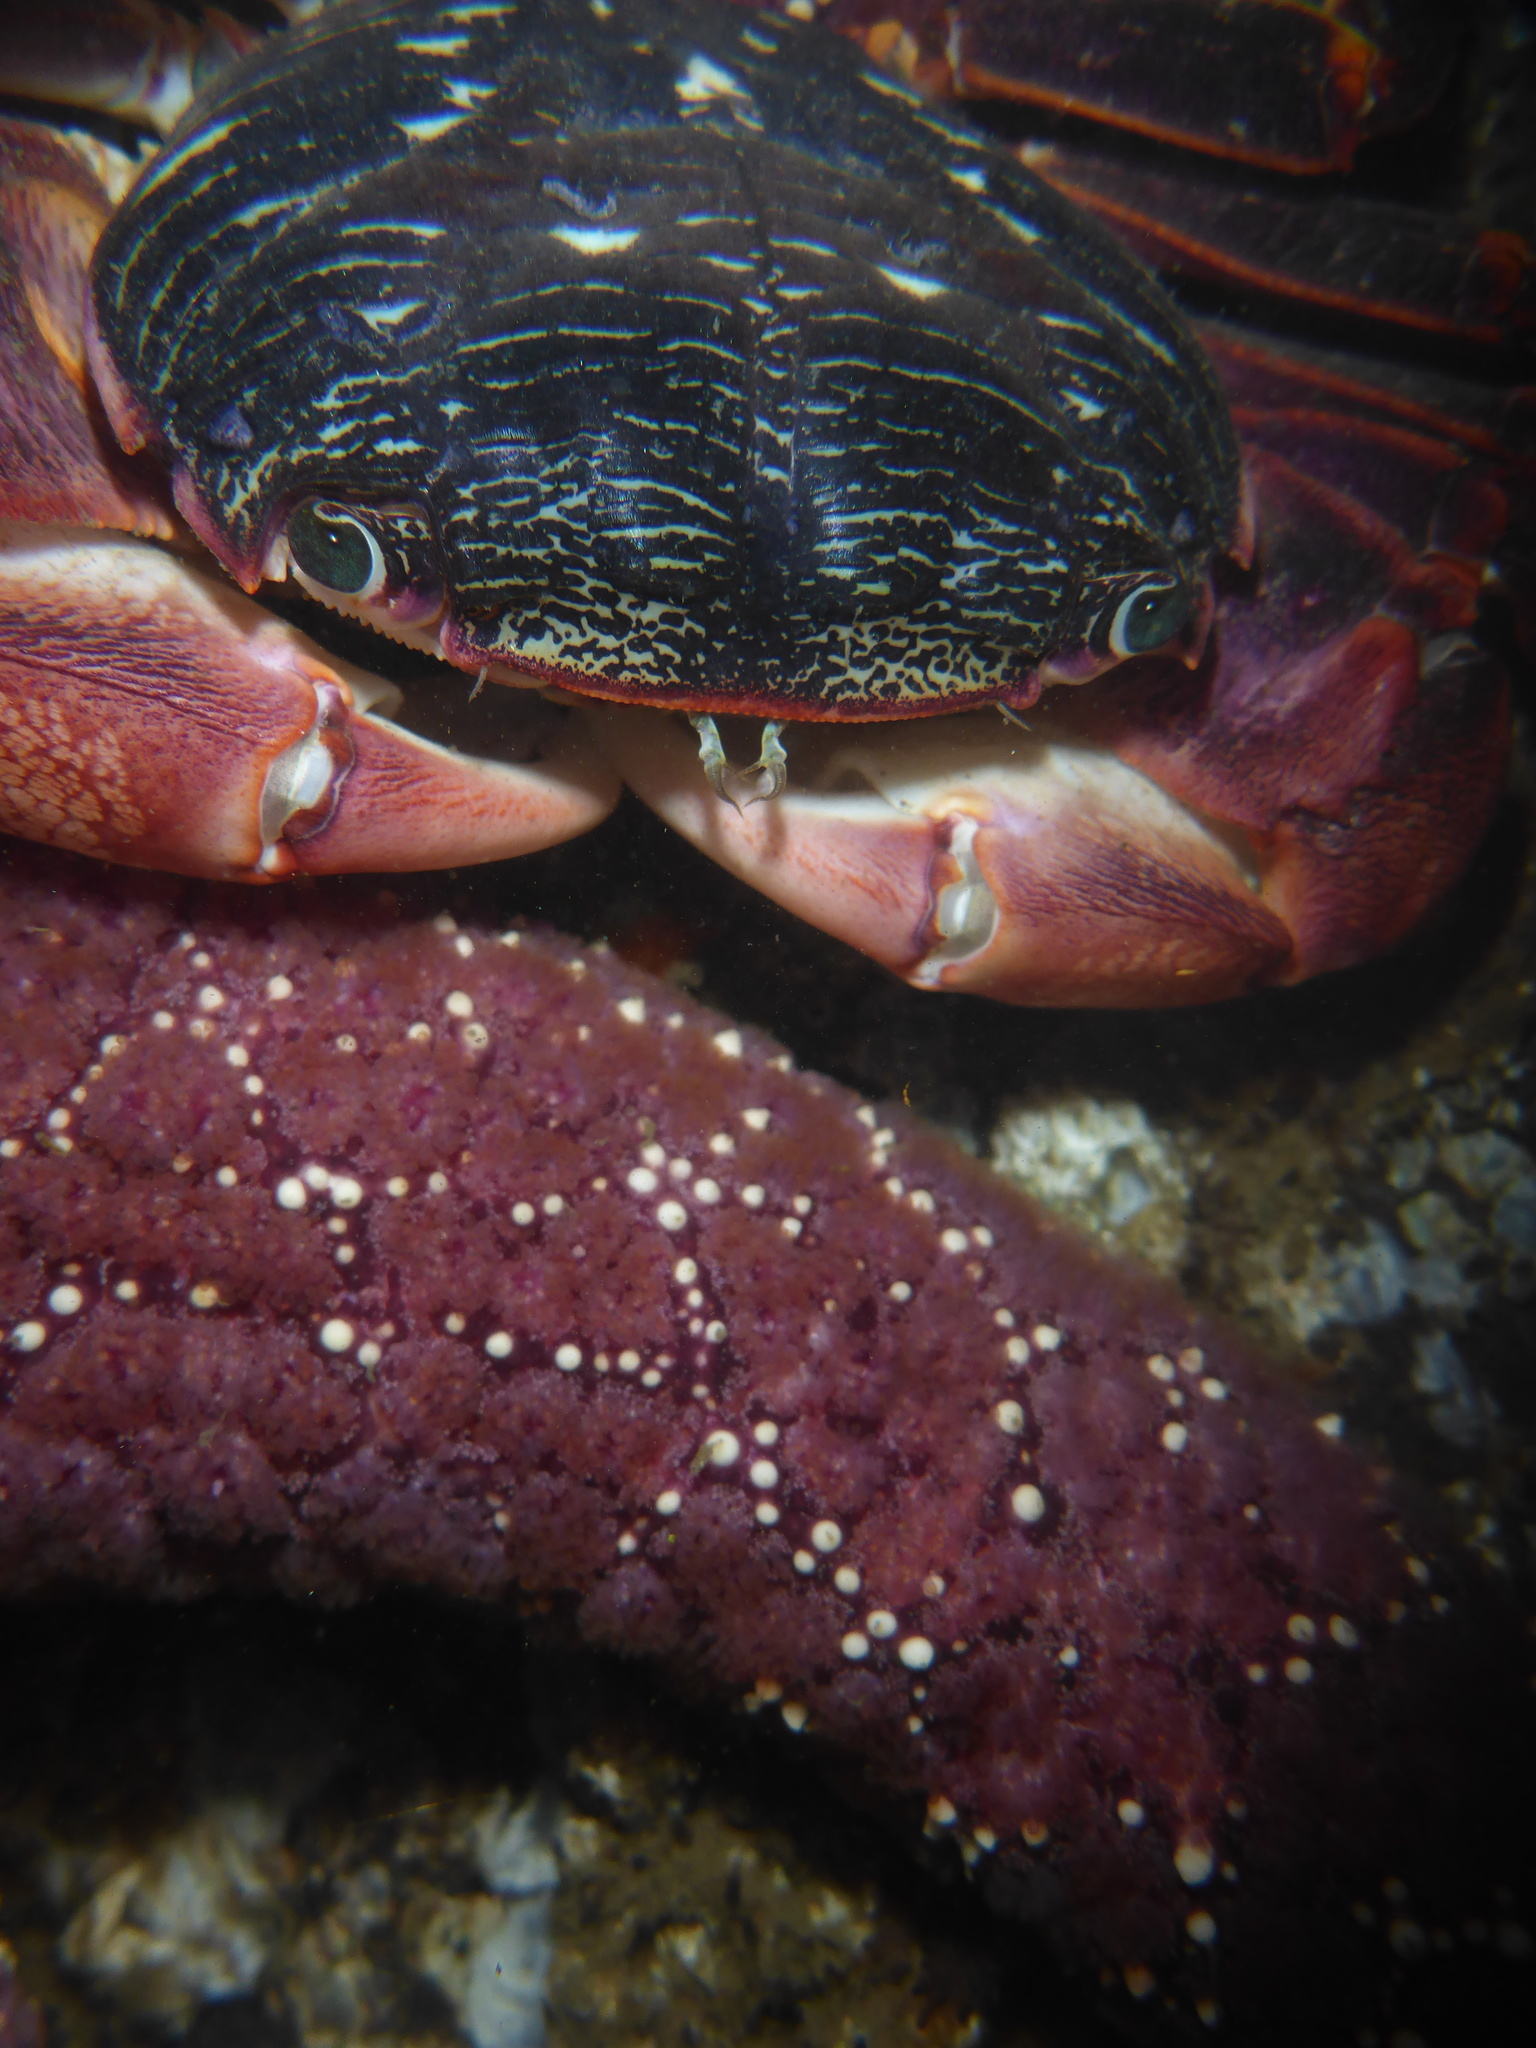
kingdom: Animalia
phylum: Arthropoda
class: Malacostraca
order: Decapoda
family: Grapsidae
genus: Pachygrapsus
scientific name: Pachygrapsus crassipes
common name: Striped shore crab
